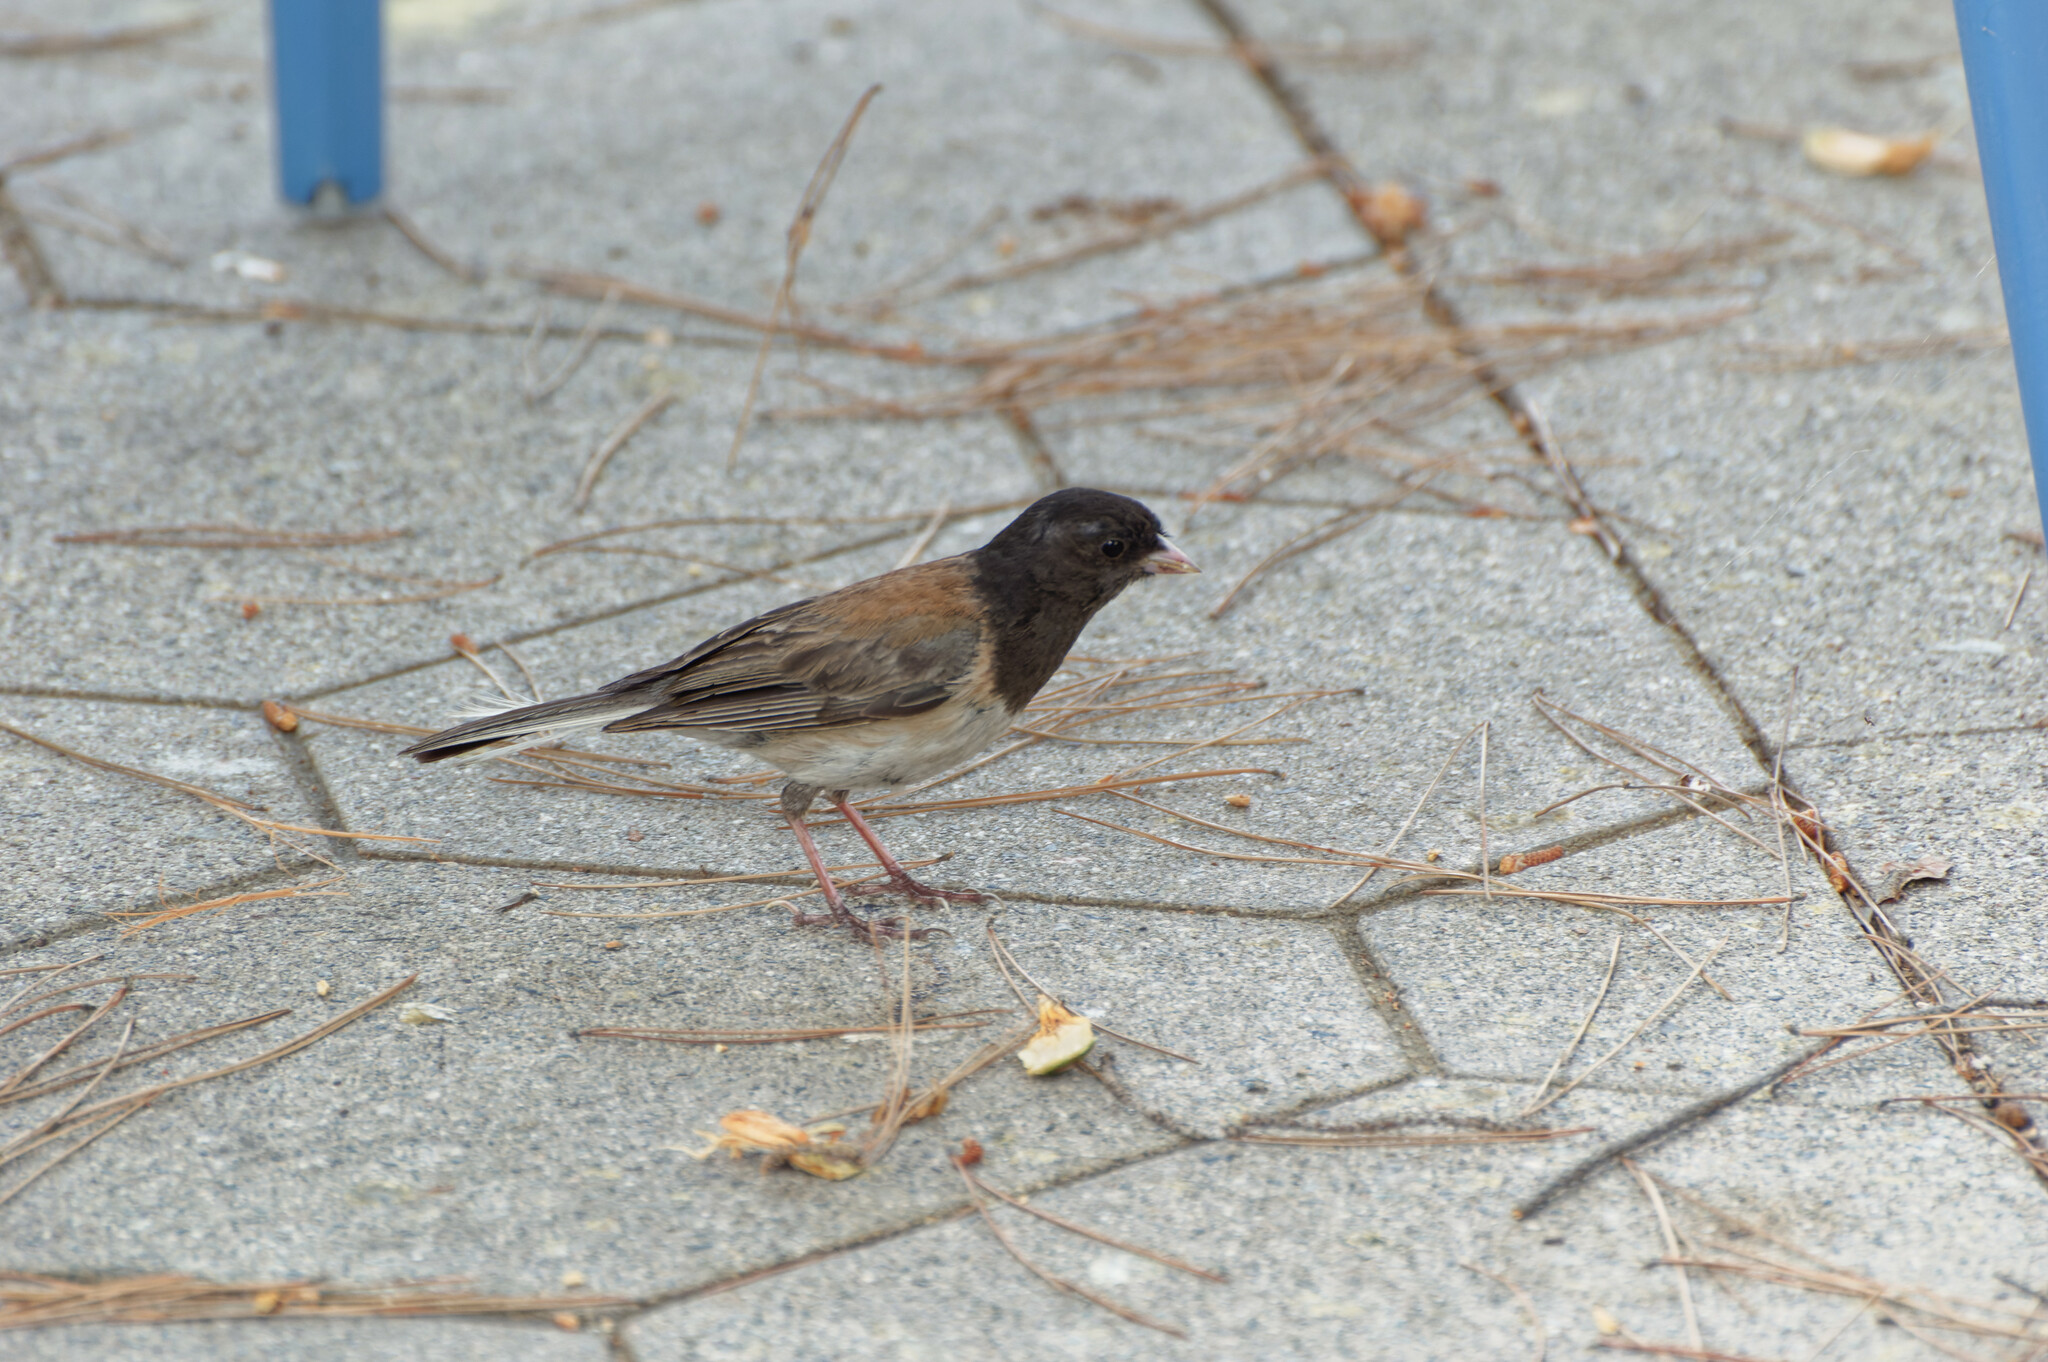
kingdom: Animalia
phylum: Chordata
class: Aves
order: Passeriformes
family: Passerellidae
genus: Junco
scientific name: Junco hyemalis
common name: Dark-eyed junco
